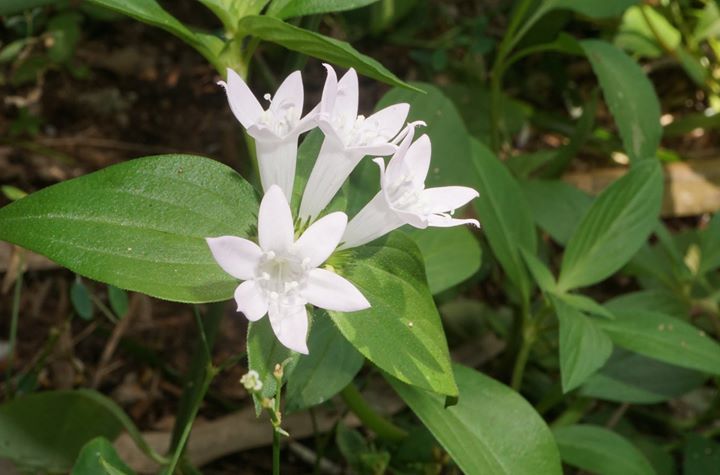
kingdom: Plantae
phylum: Tracheophyta
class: Magnoliopsida
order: Gentianales
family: Rubiaceae
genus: Richardia
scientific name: Richardia grandiflora
